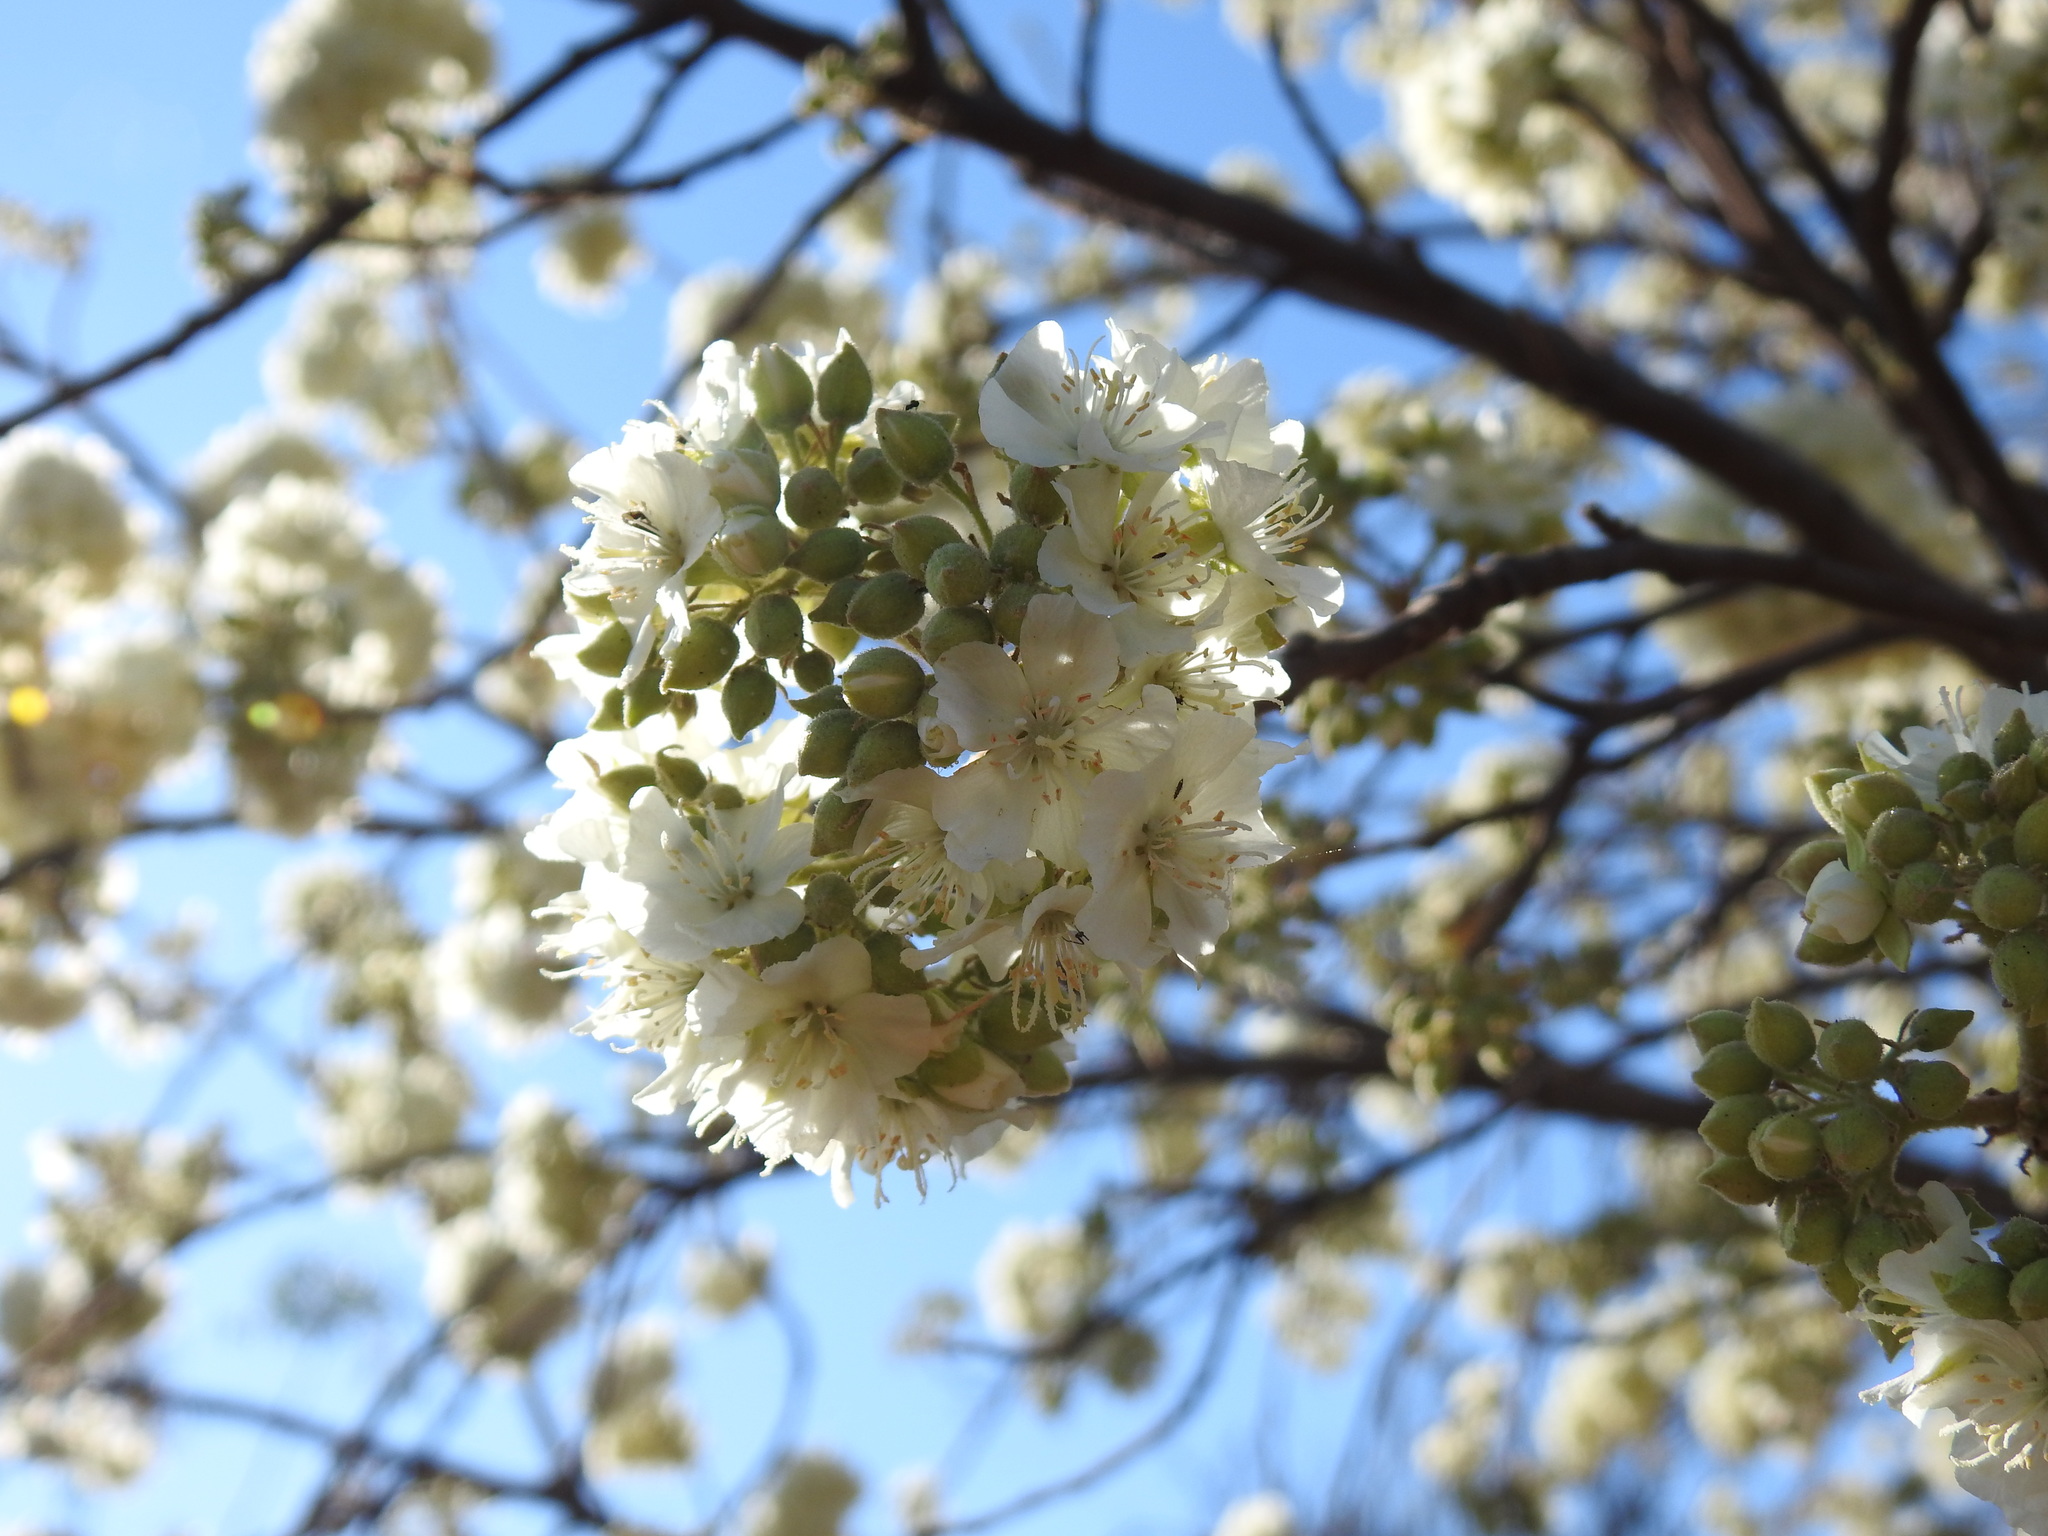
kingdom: Plantae
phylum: Tracheophyta
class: Magnoliopsida
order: Malvales
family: Malvaceae
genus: Dombeya
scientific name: Dombeya rotundifolia
